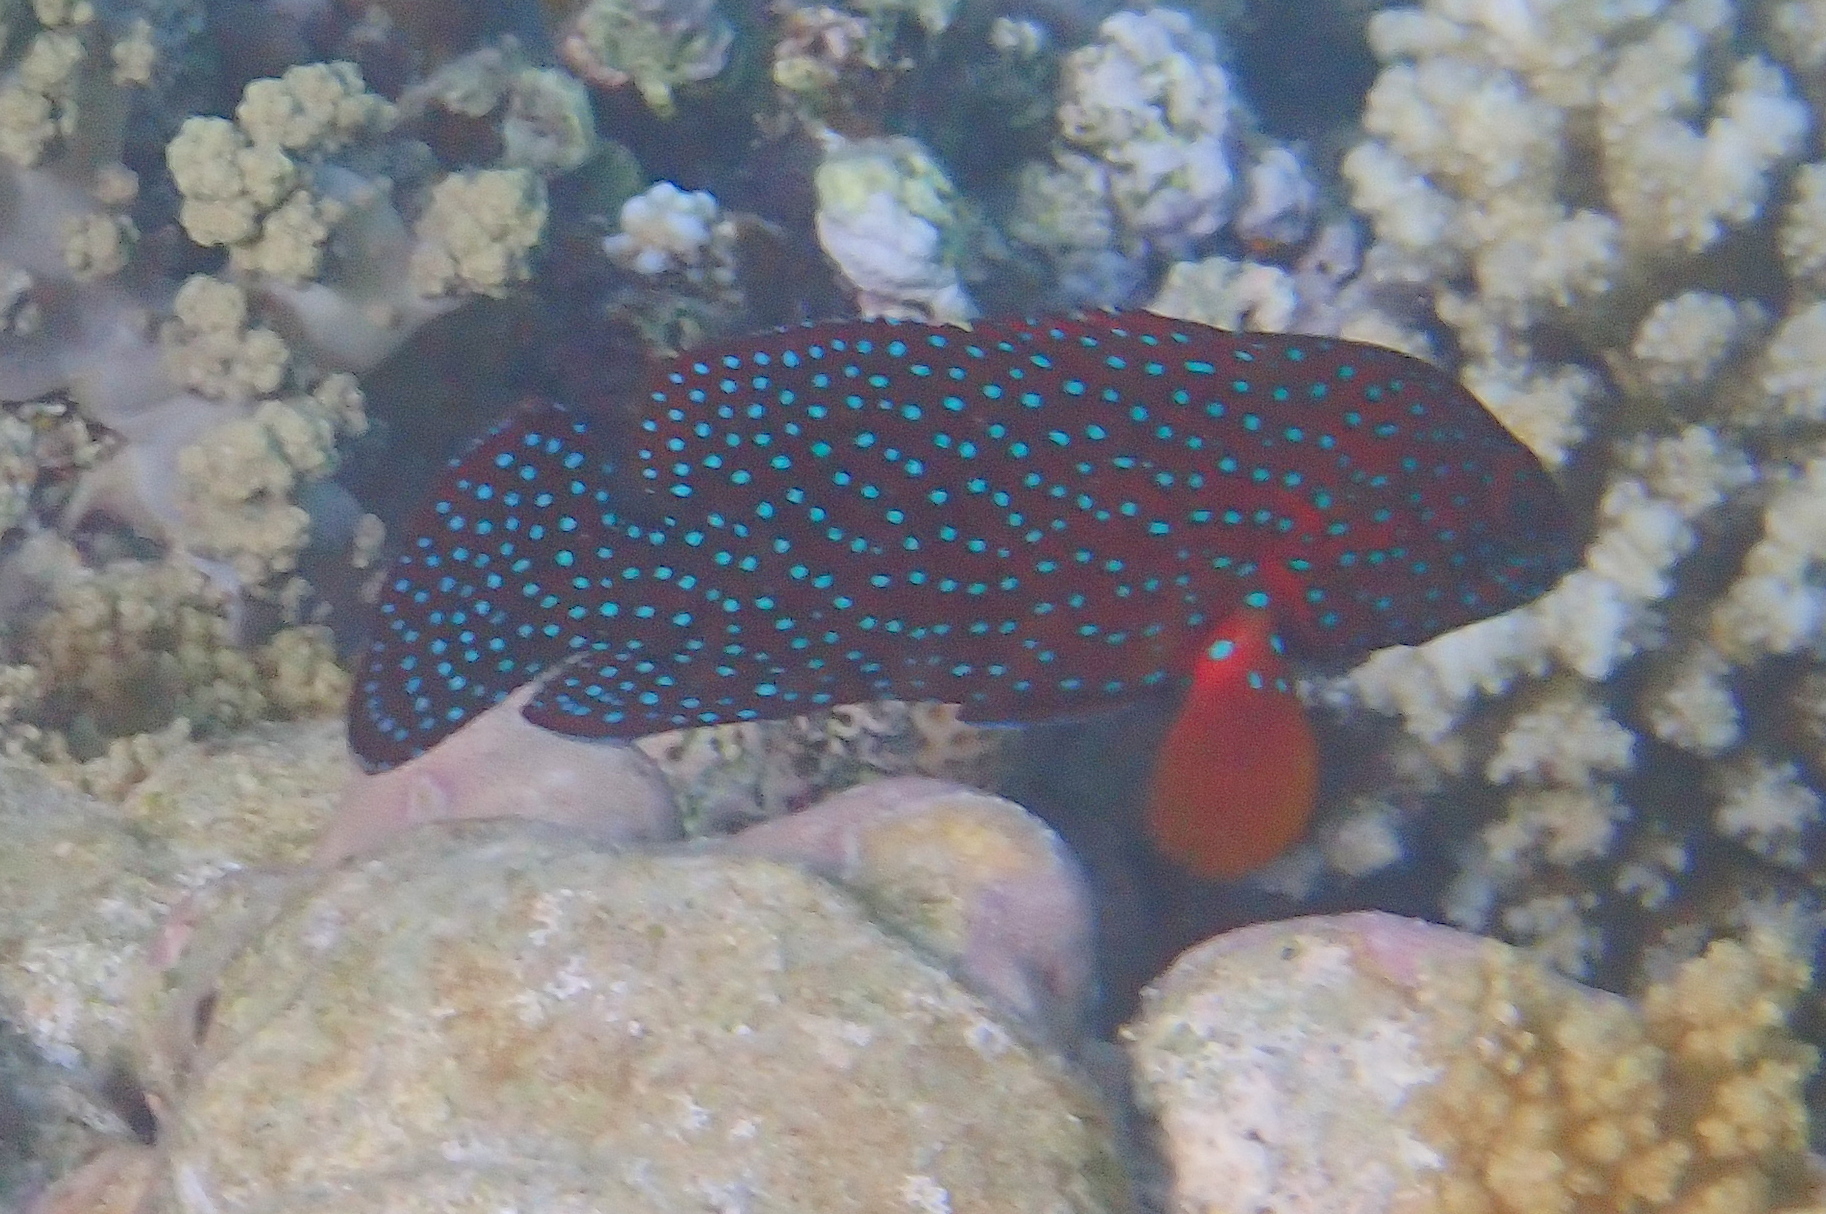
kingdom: Animalia
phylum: Chordata
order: Perciformes
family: Serranidae
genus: Cephalopholis
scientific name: Cephalopholis miniata
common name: Coral hind
